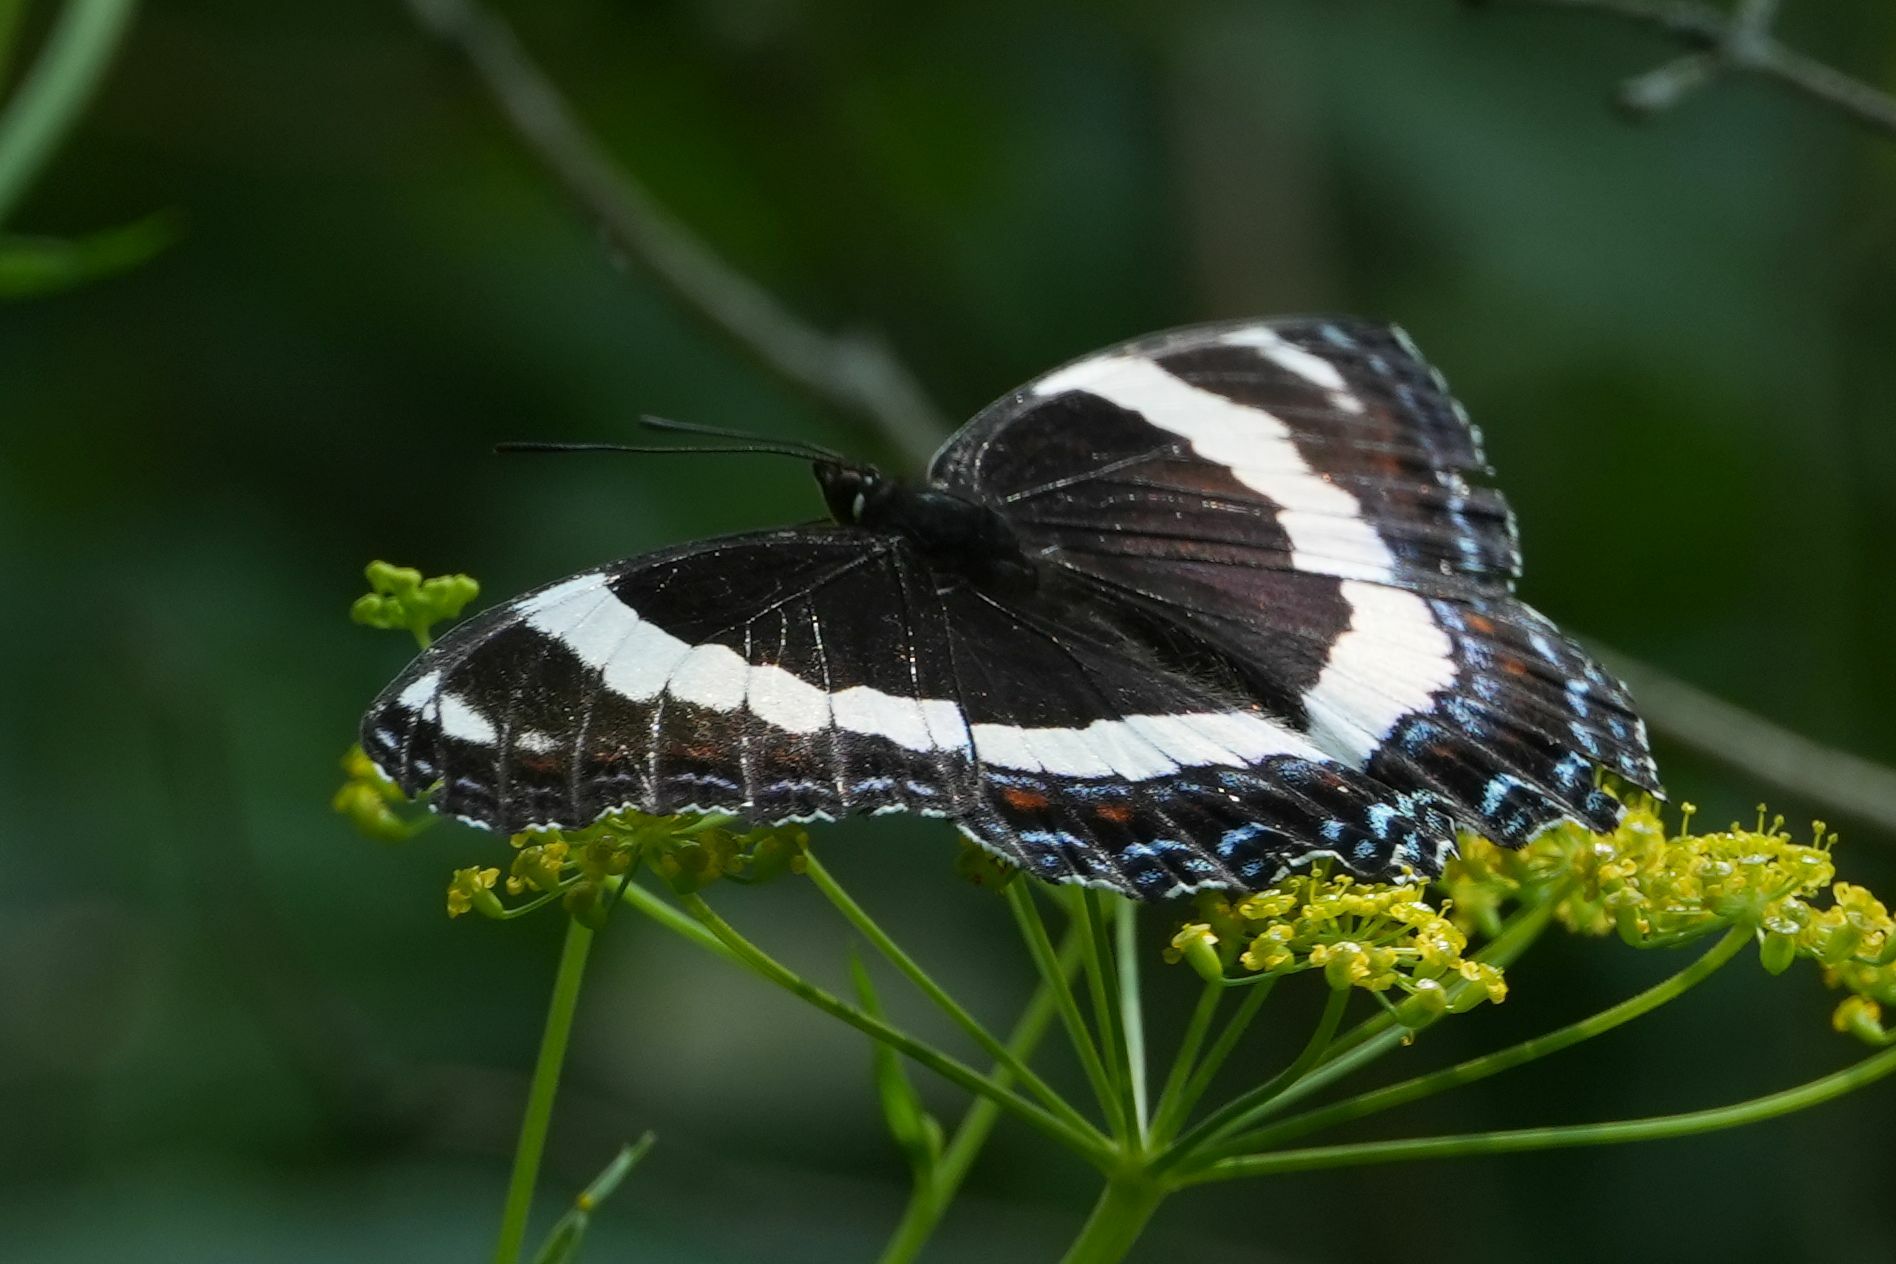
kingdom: Animalia
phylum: Arthropoda
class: Insecta
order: Lepidoptera
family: Nymphalidae
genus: Limenitis
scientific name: Limenitis arthemis
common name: Red-spotted admiral
